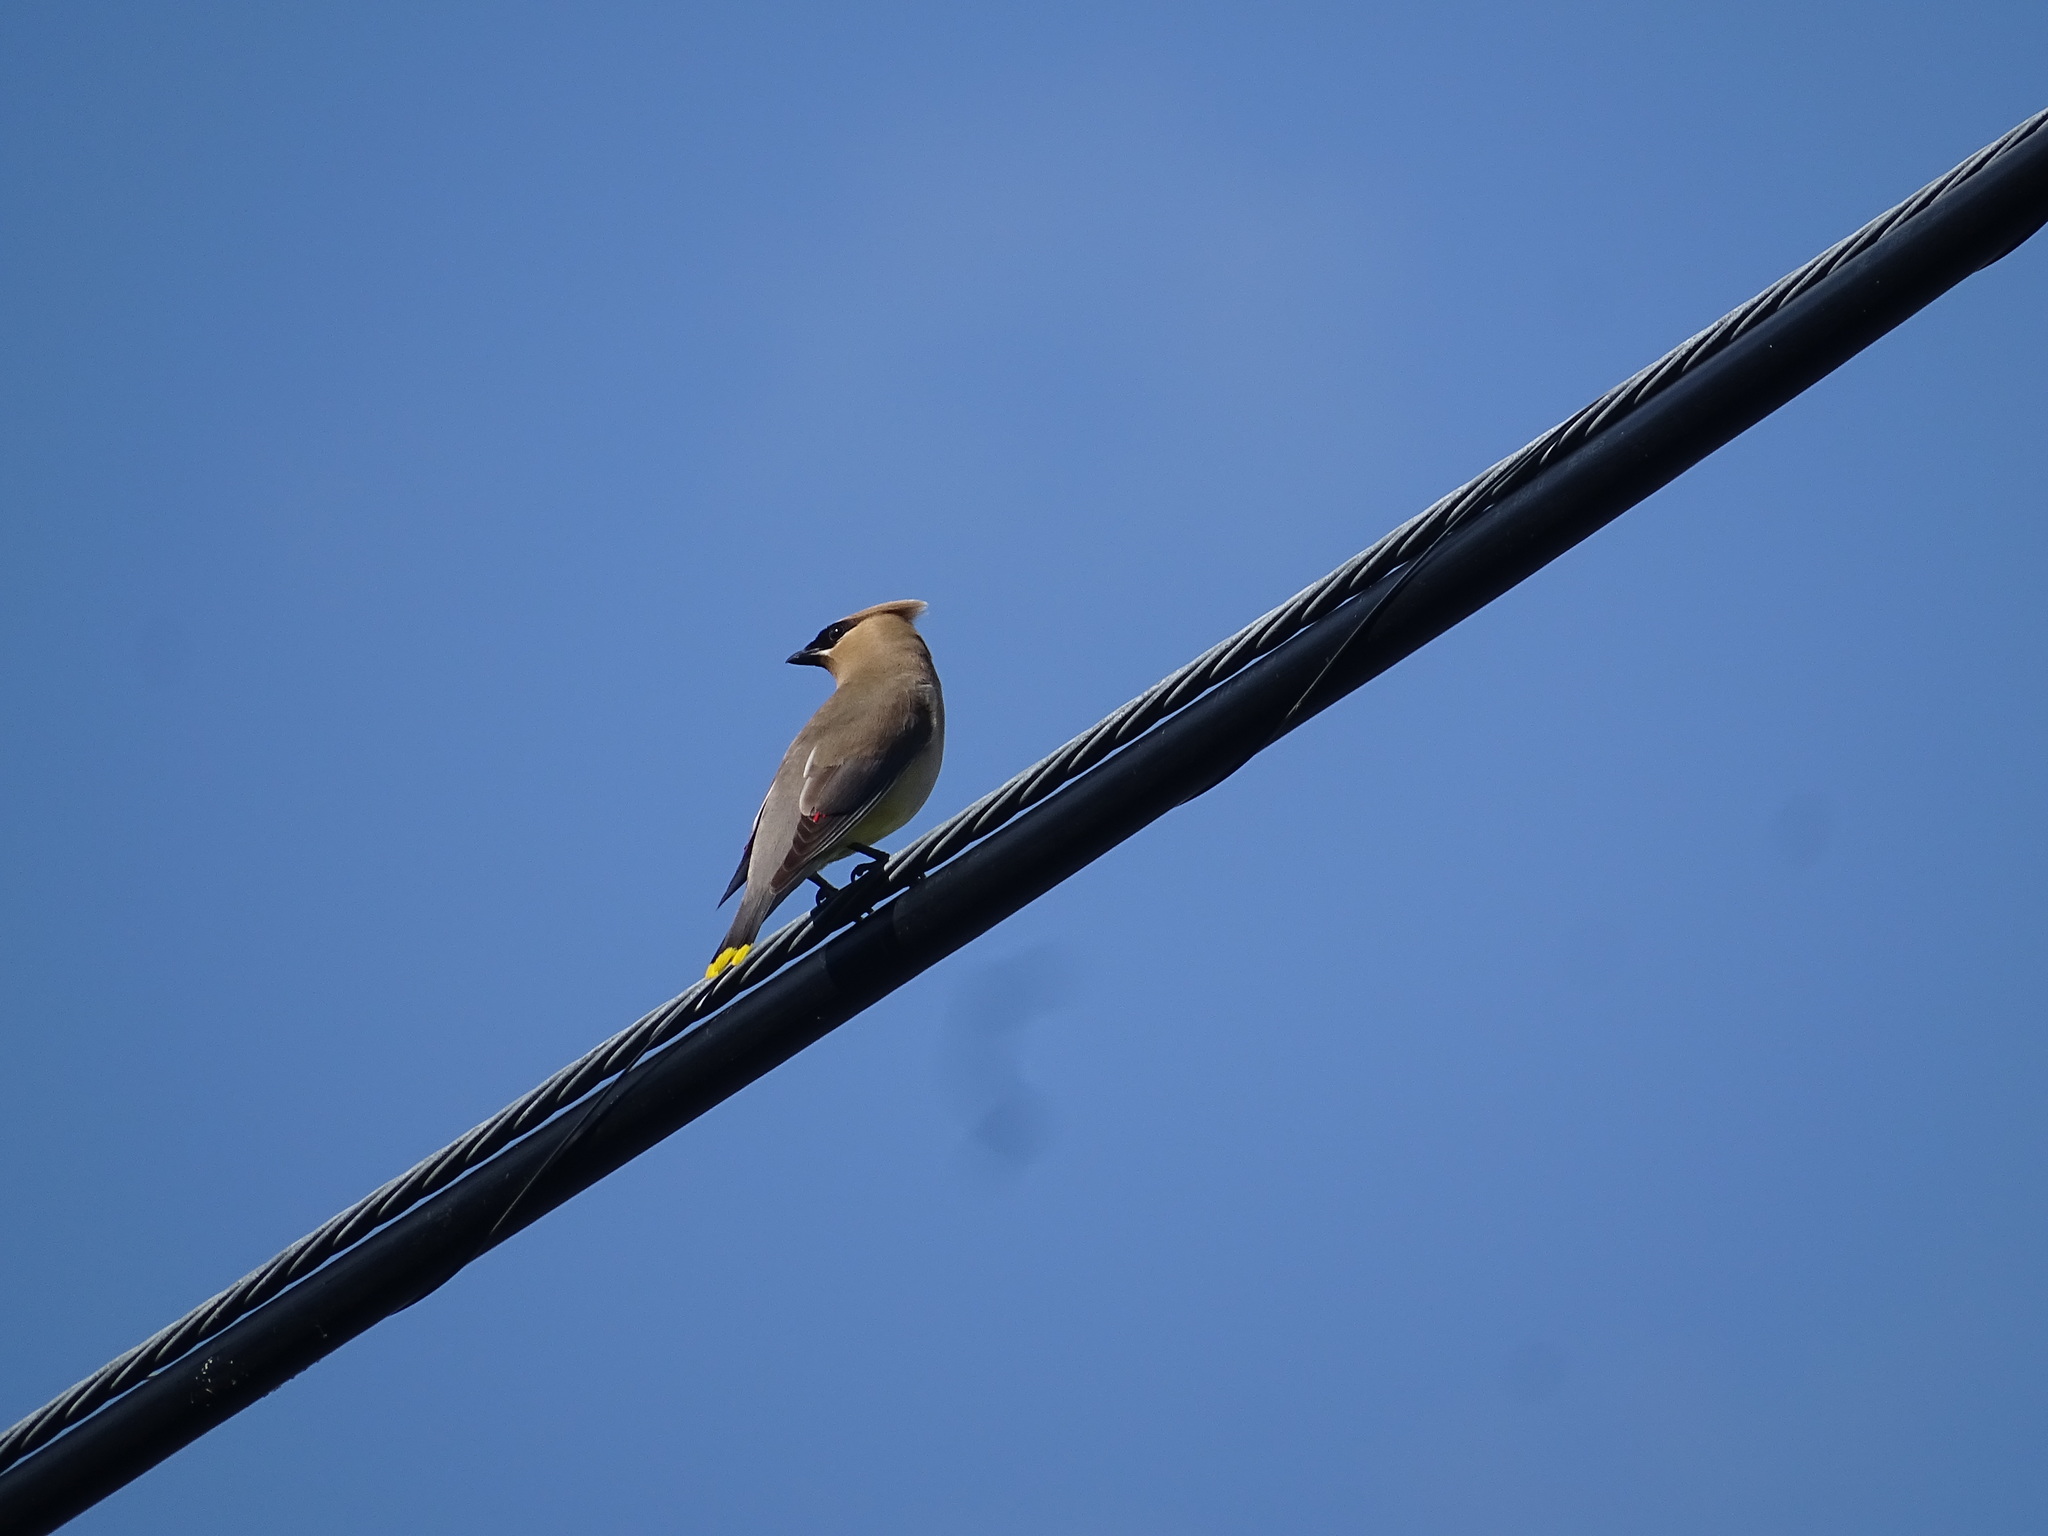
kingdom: Animalia
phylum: Chordata
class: Aves
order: Passeriformes
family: Bombycillidae
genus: Bombycilla
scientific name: Bombycilla cedrorum
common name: Cedar waxwing
